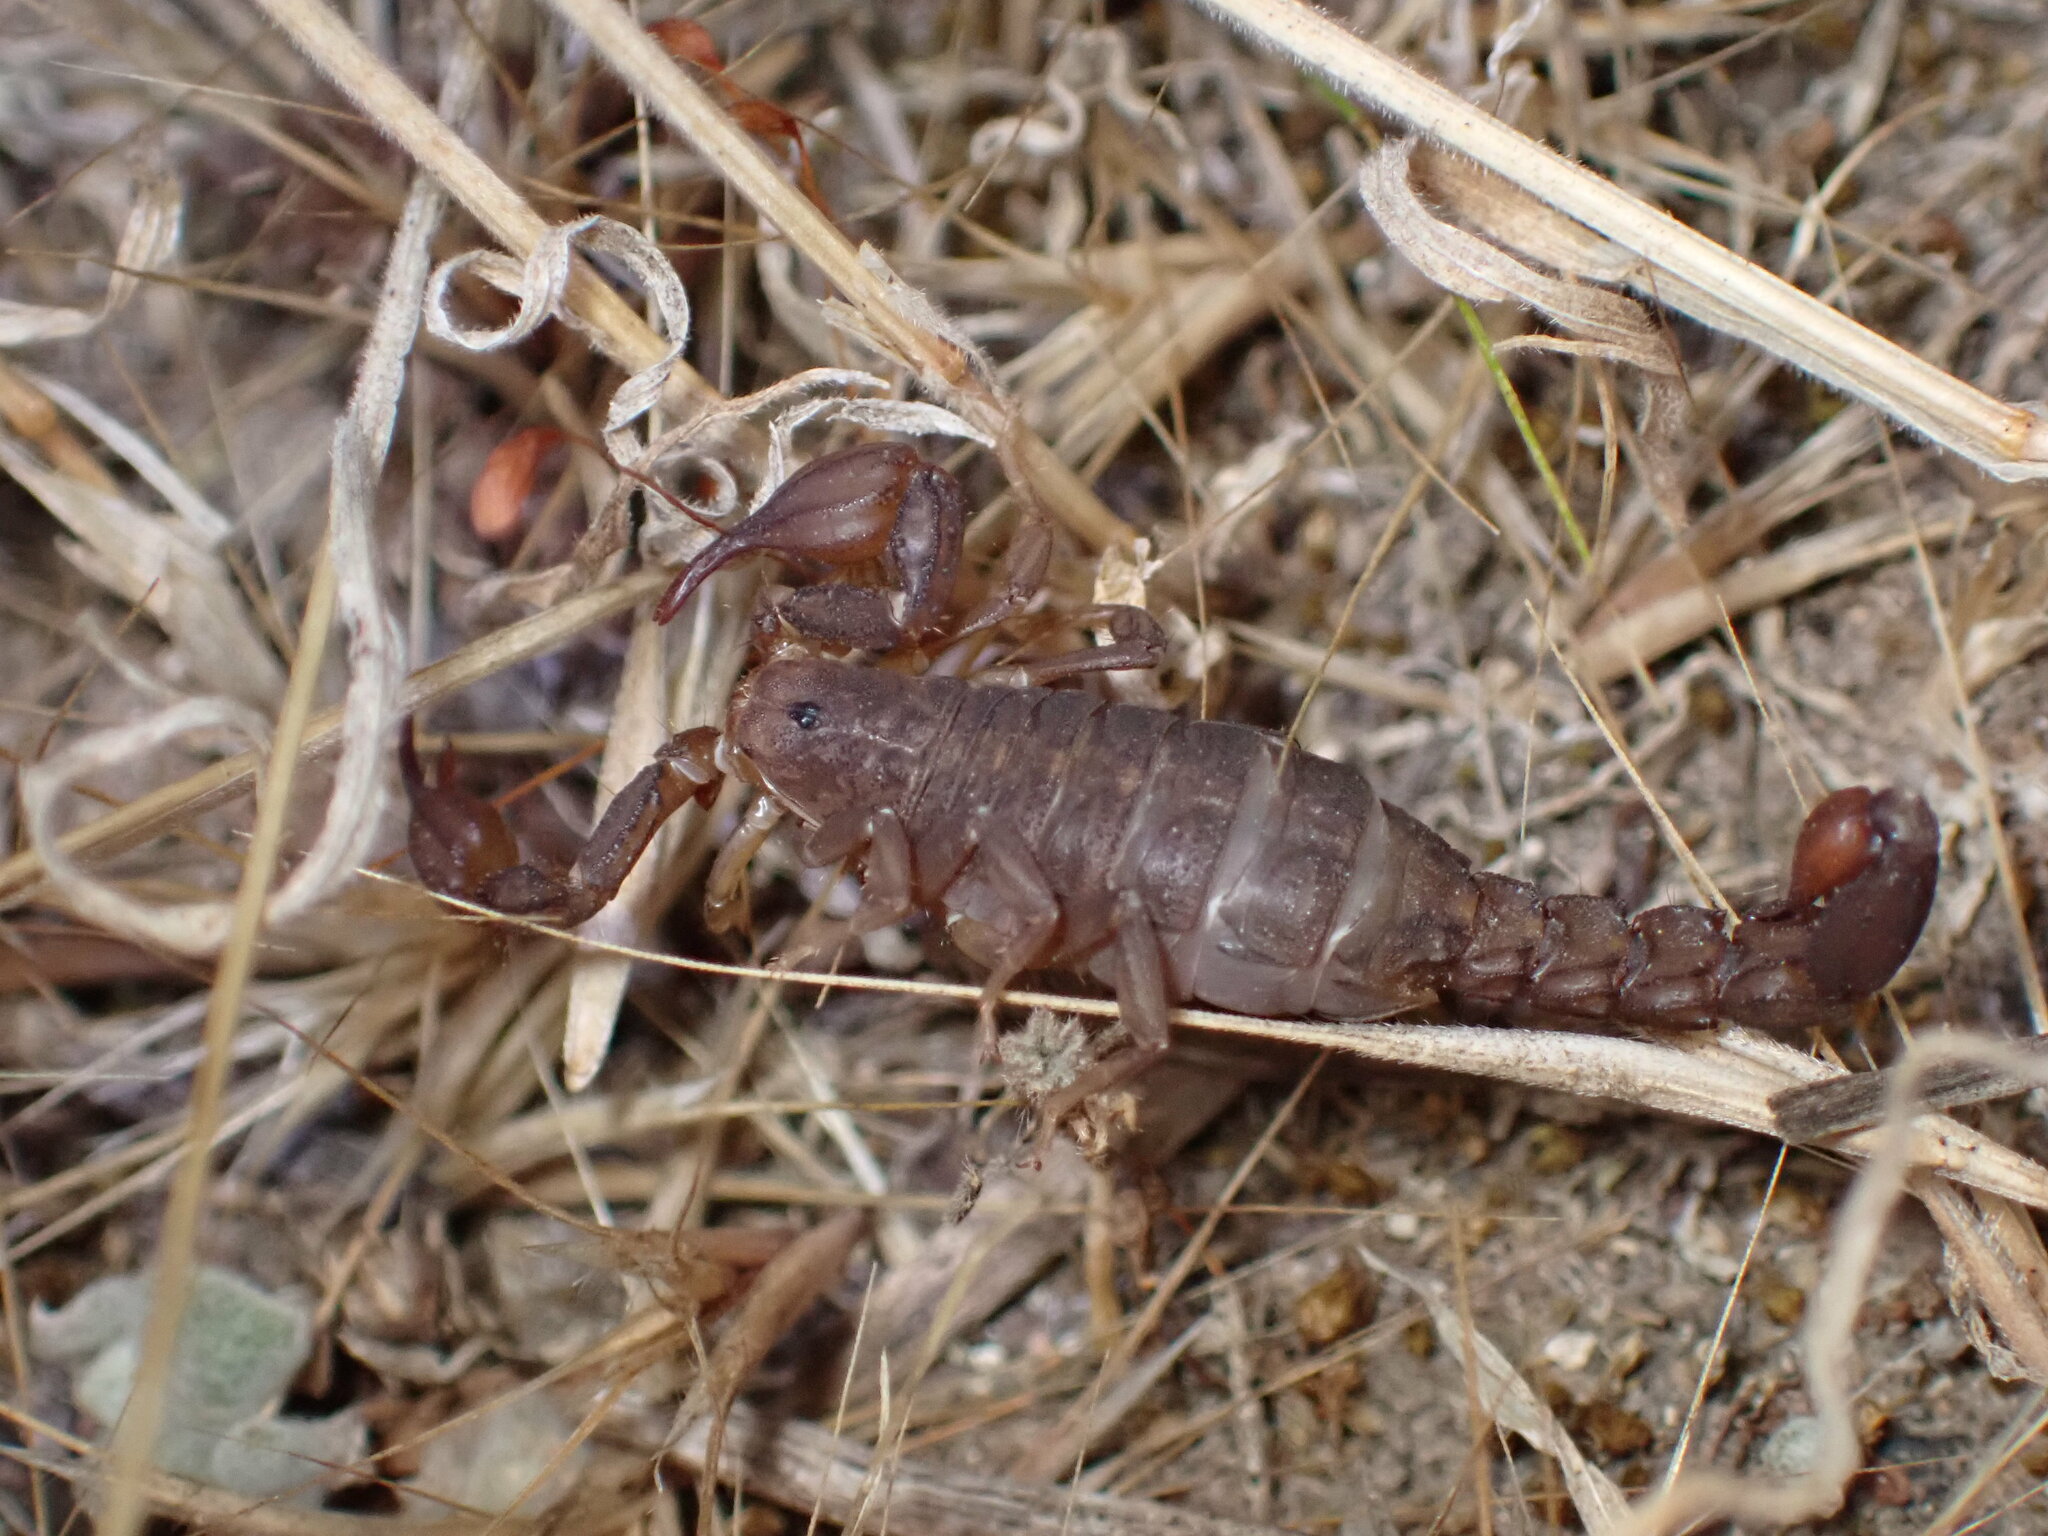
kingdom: Animalia
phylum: Arthropoda
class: Arachnida
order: Scorpiones
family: Vaejovidae
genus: Catalinia
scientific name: Catalinia thompsoni
